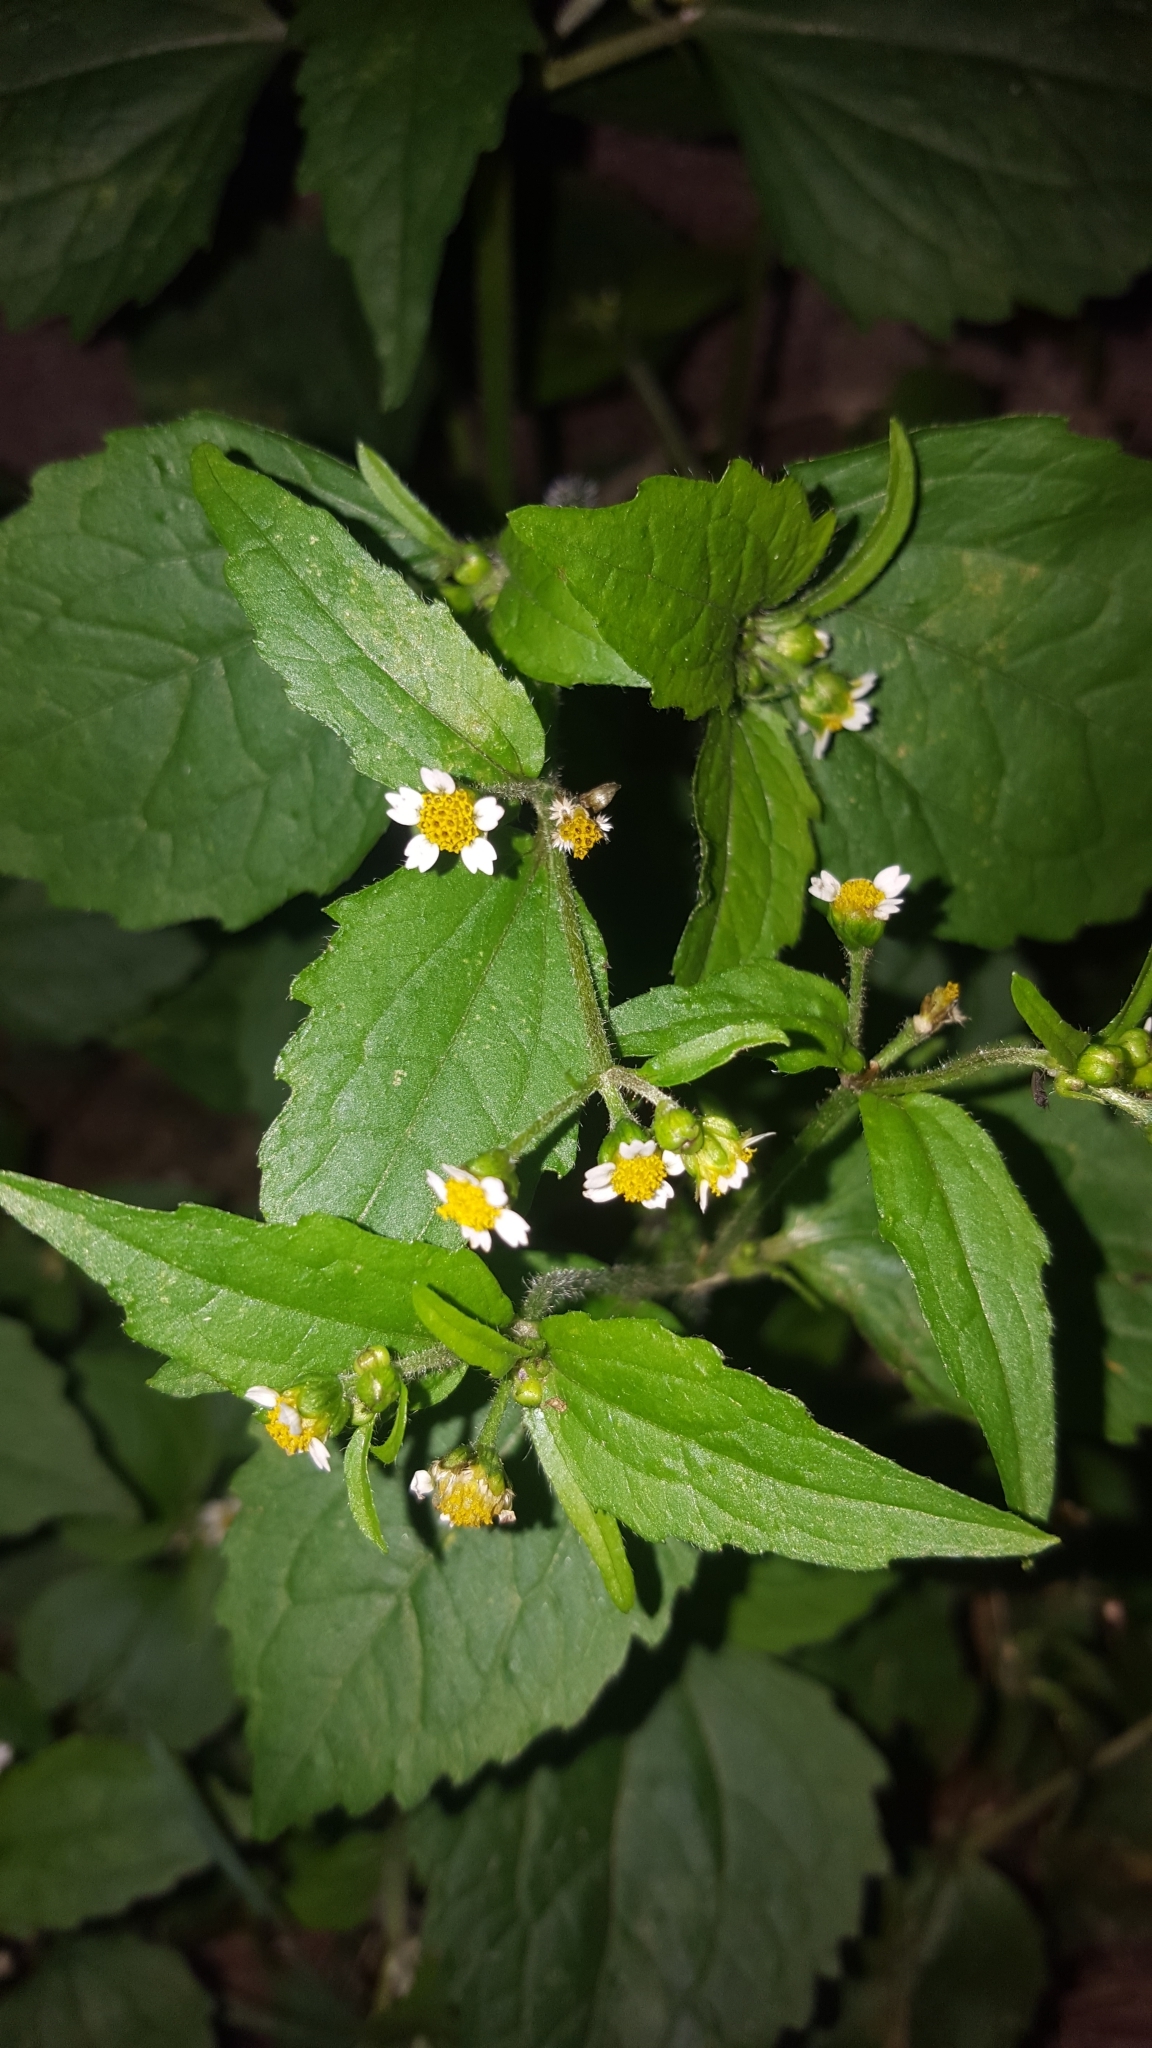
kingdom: Plantae
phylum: Tracheophyta
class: Magnoliopsida
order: Asterales
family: Asteraceae
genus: Galinsoga
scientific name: Galinsoga quadriradiata
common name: Shaggy soldier
